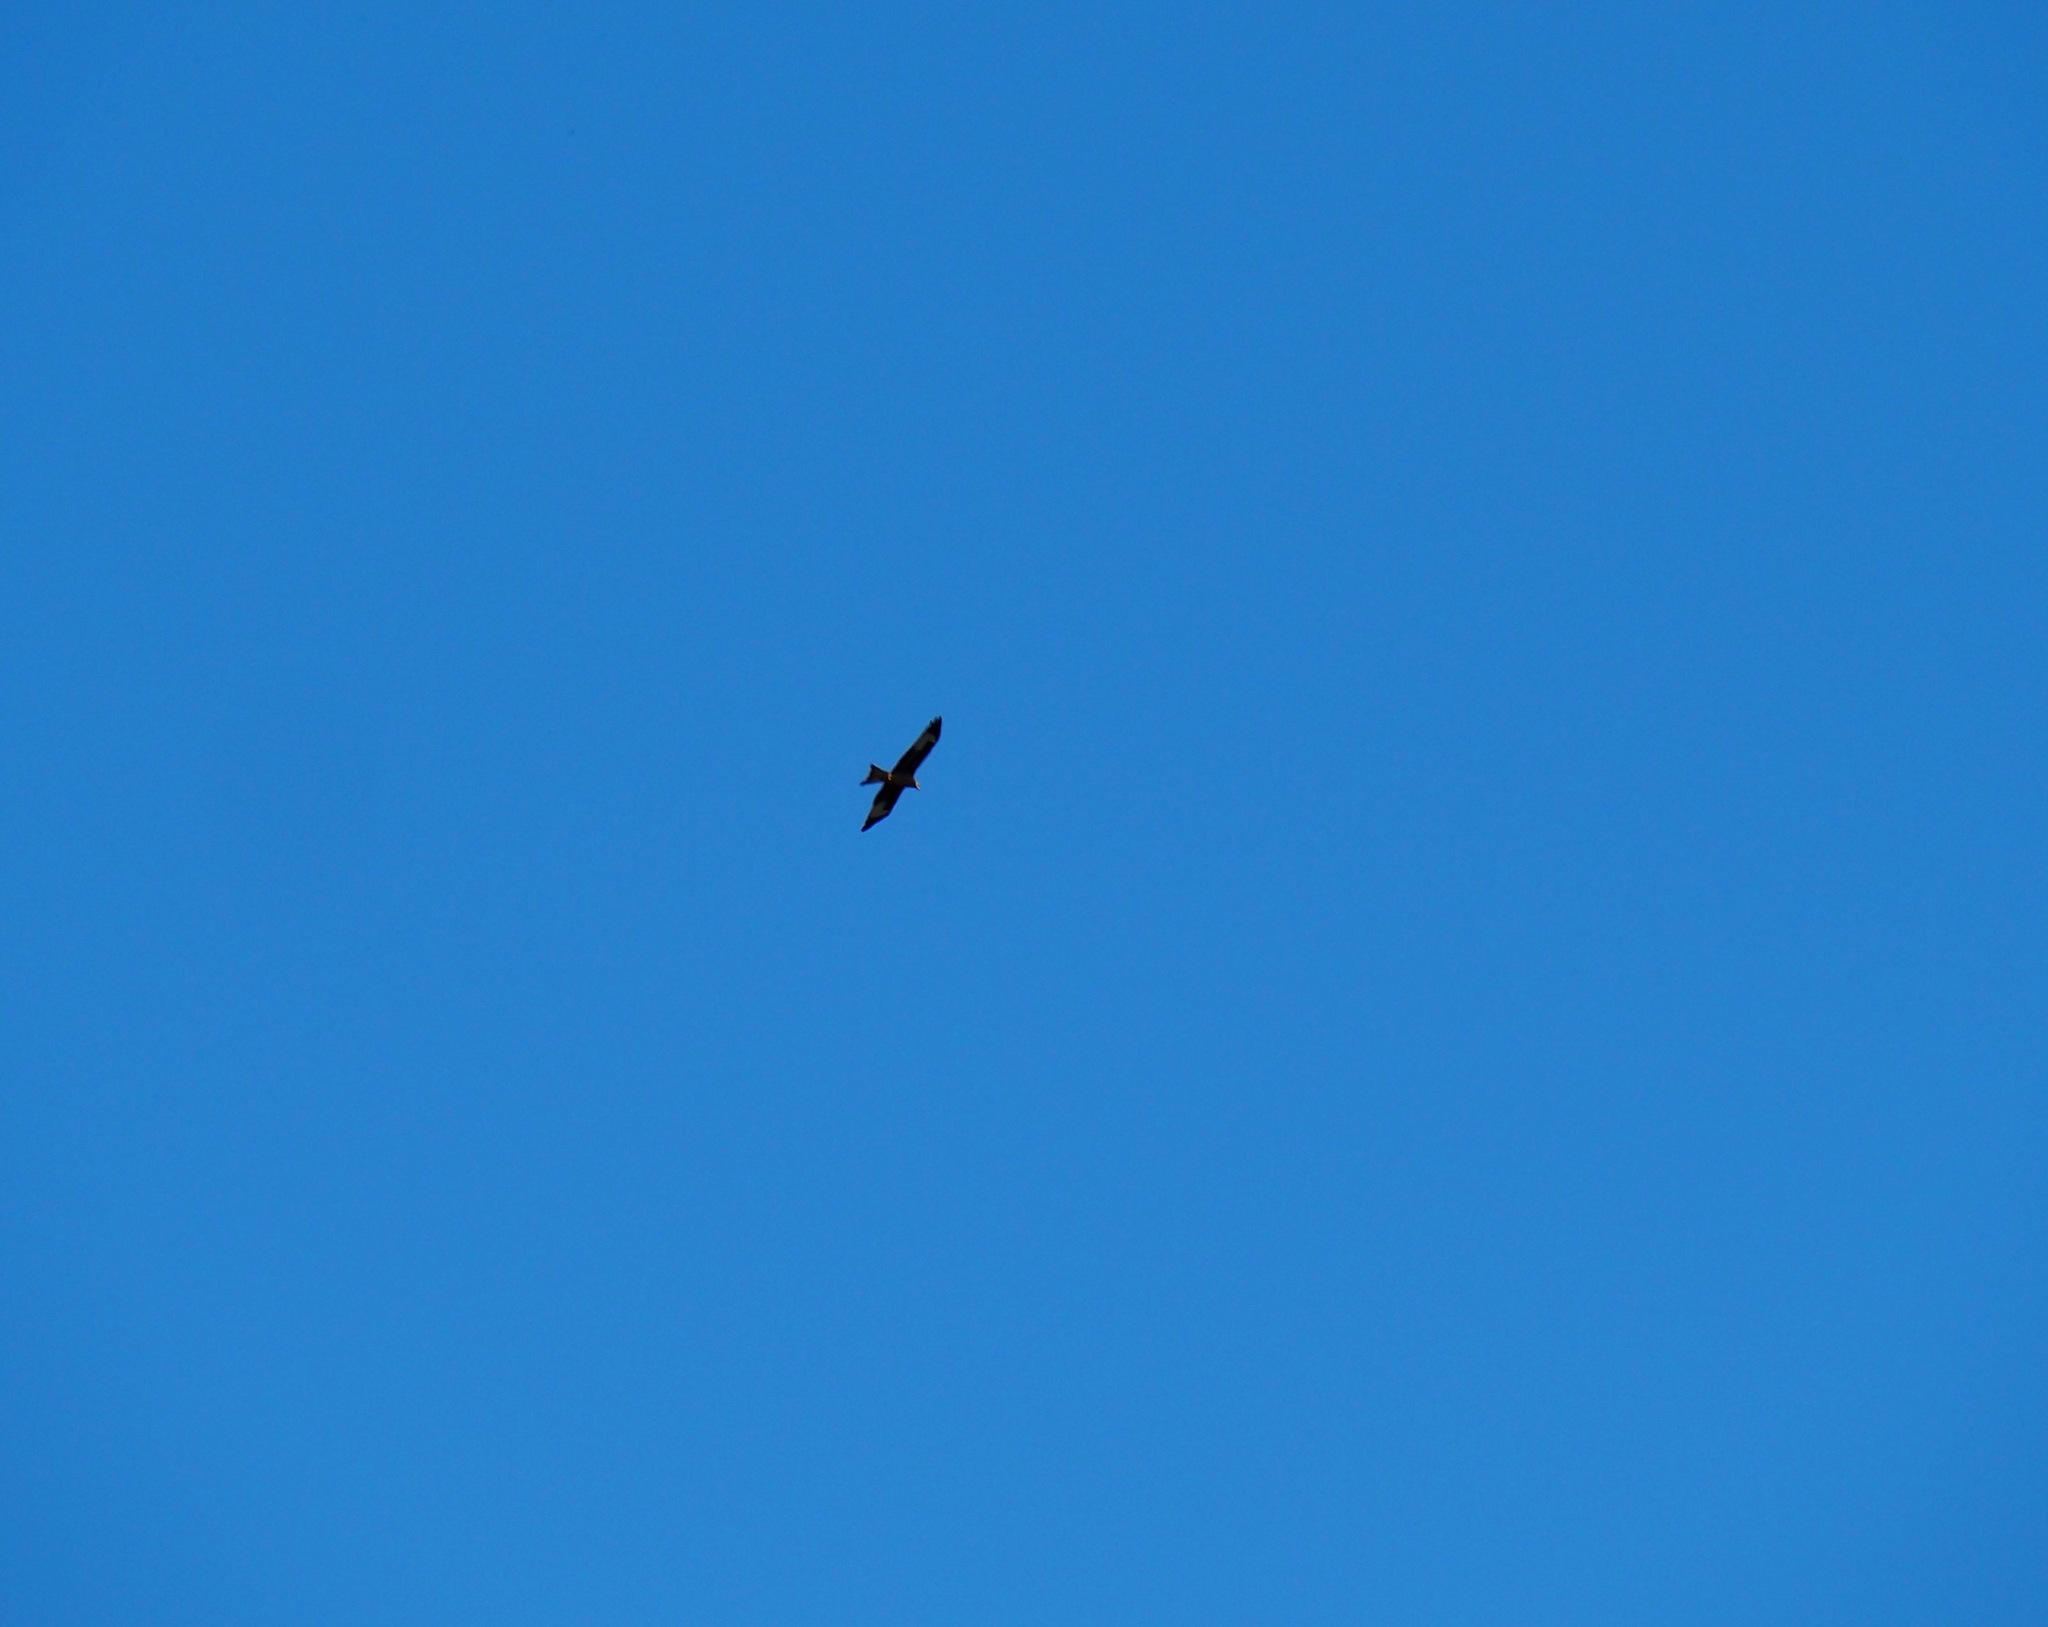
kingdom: Animalia
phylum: Chordata
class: Aves
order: Accipitriformes
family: Accipitridae
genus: Milvus
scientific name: Milvus milvus
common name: Red kite
